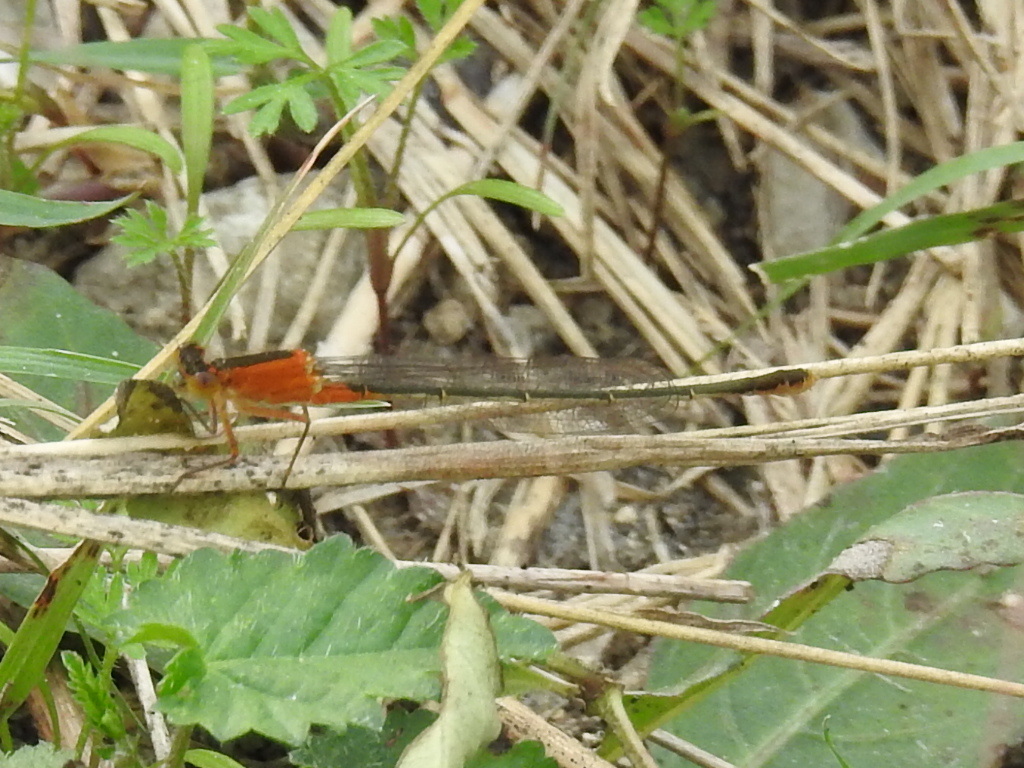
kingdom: Animalia
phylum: Arthropoda
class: Insecta
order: Odonata
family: Coenagrionidae
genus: Ischnura
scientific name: Ischnura ramburii
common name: Rambur's forktail
